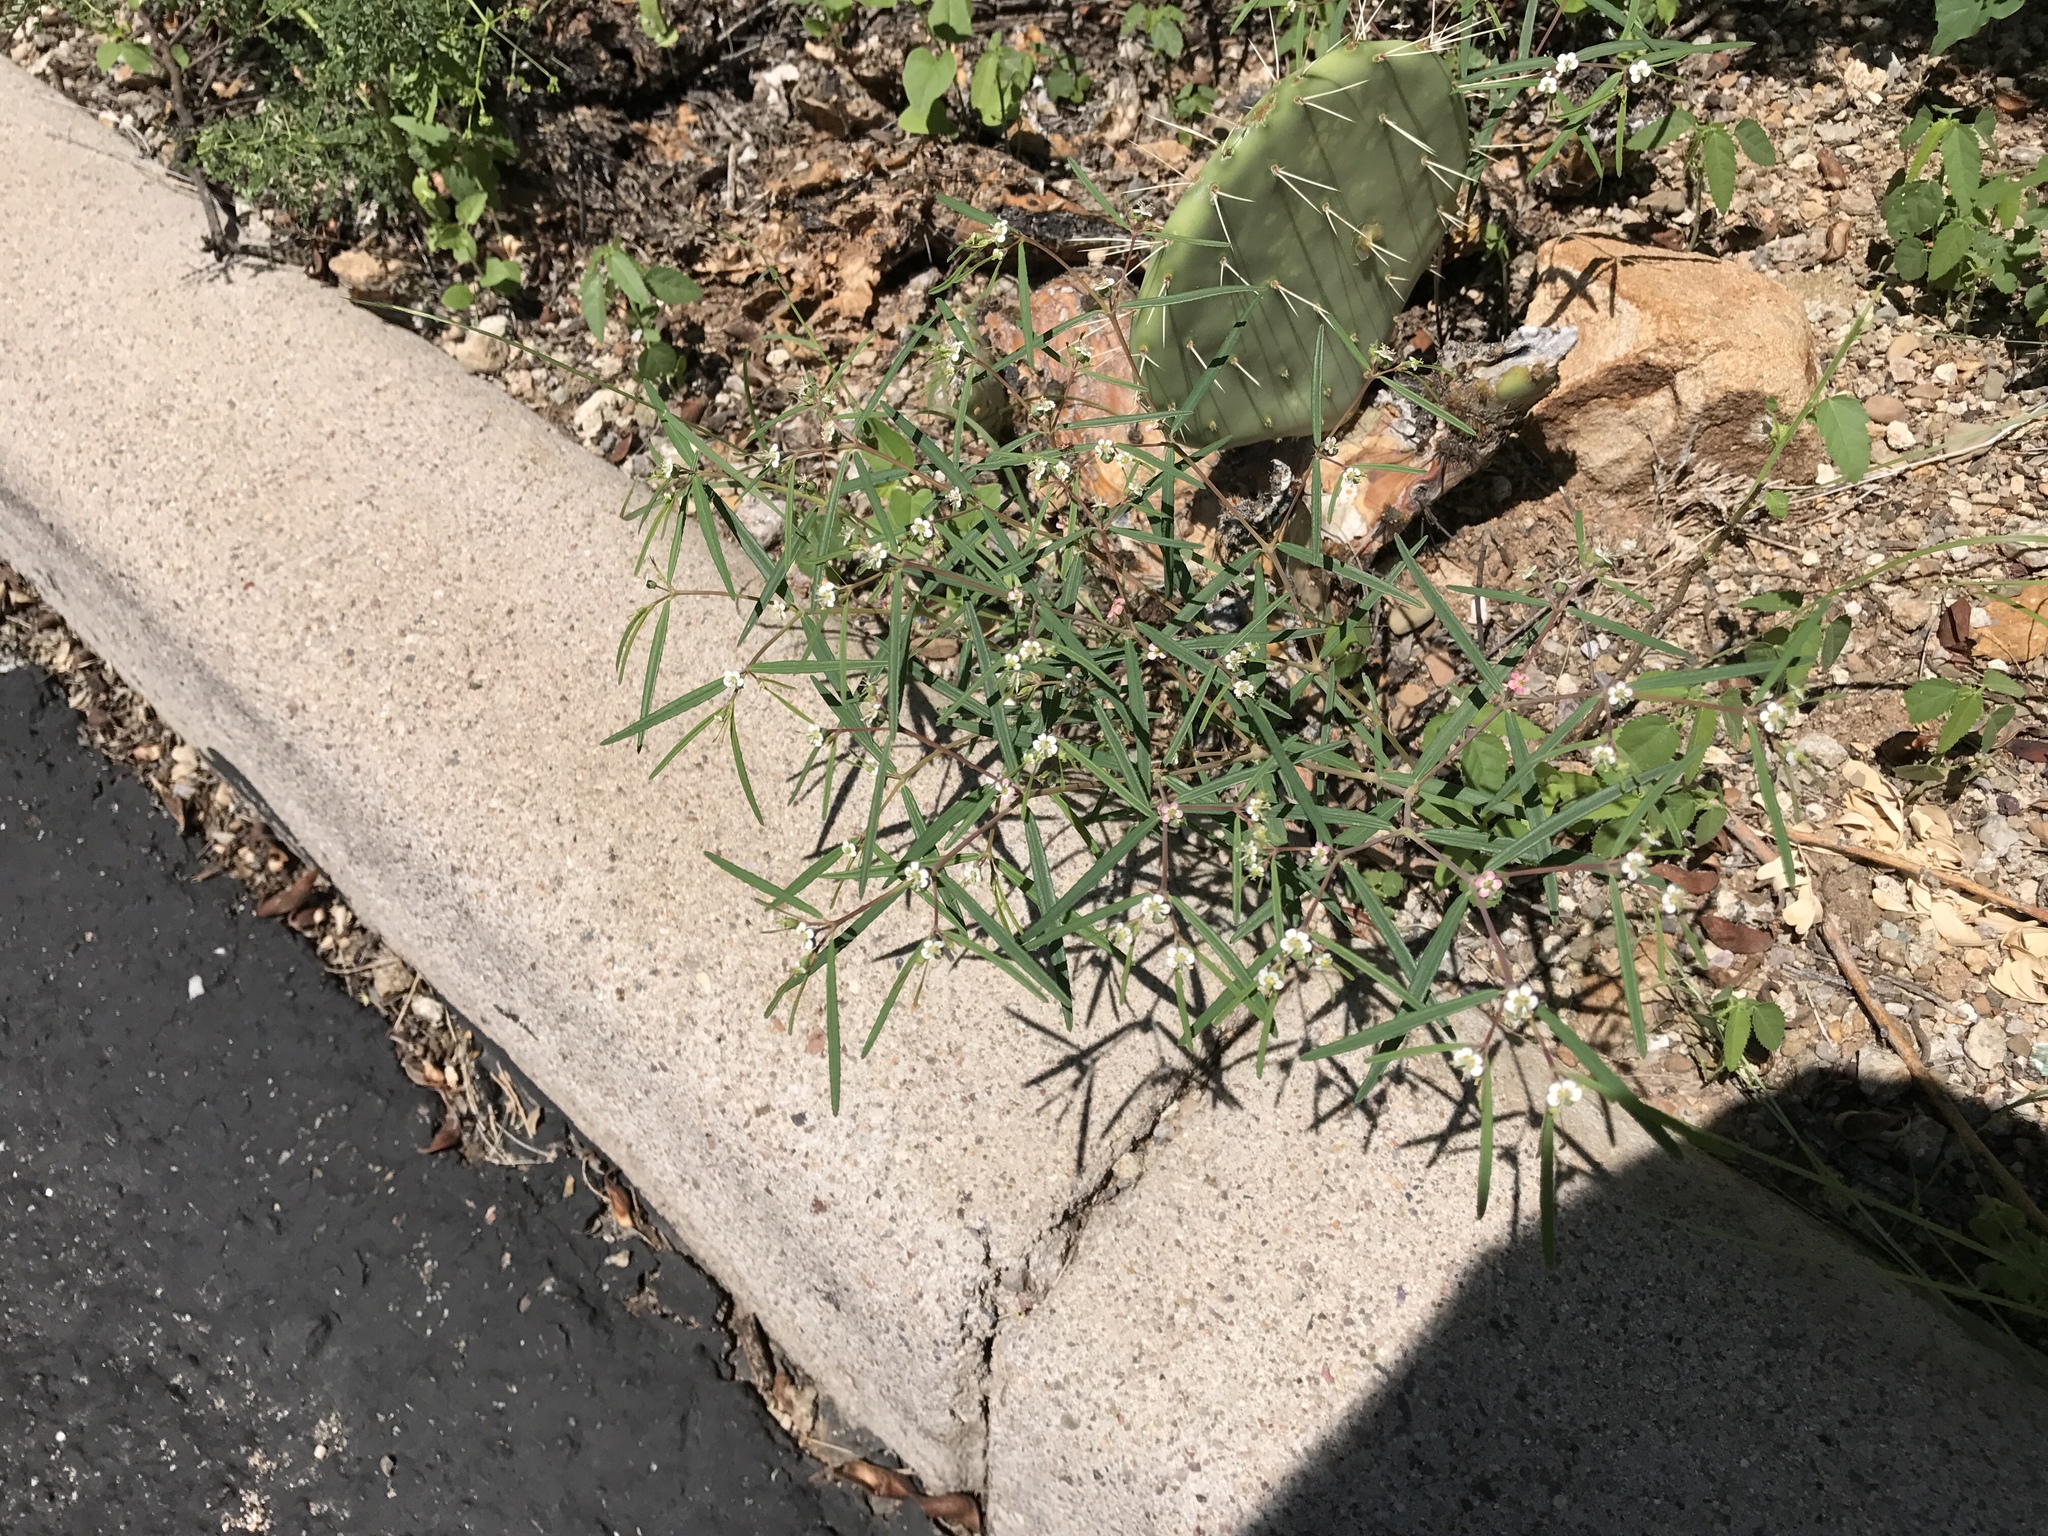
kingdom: Plantae
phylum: Tracheophyta
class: Magnoliopsida
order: Malpighiales
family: Euphorbiaceae
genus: Euphorbia
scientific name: Euphorbia florida
